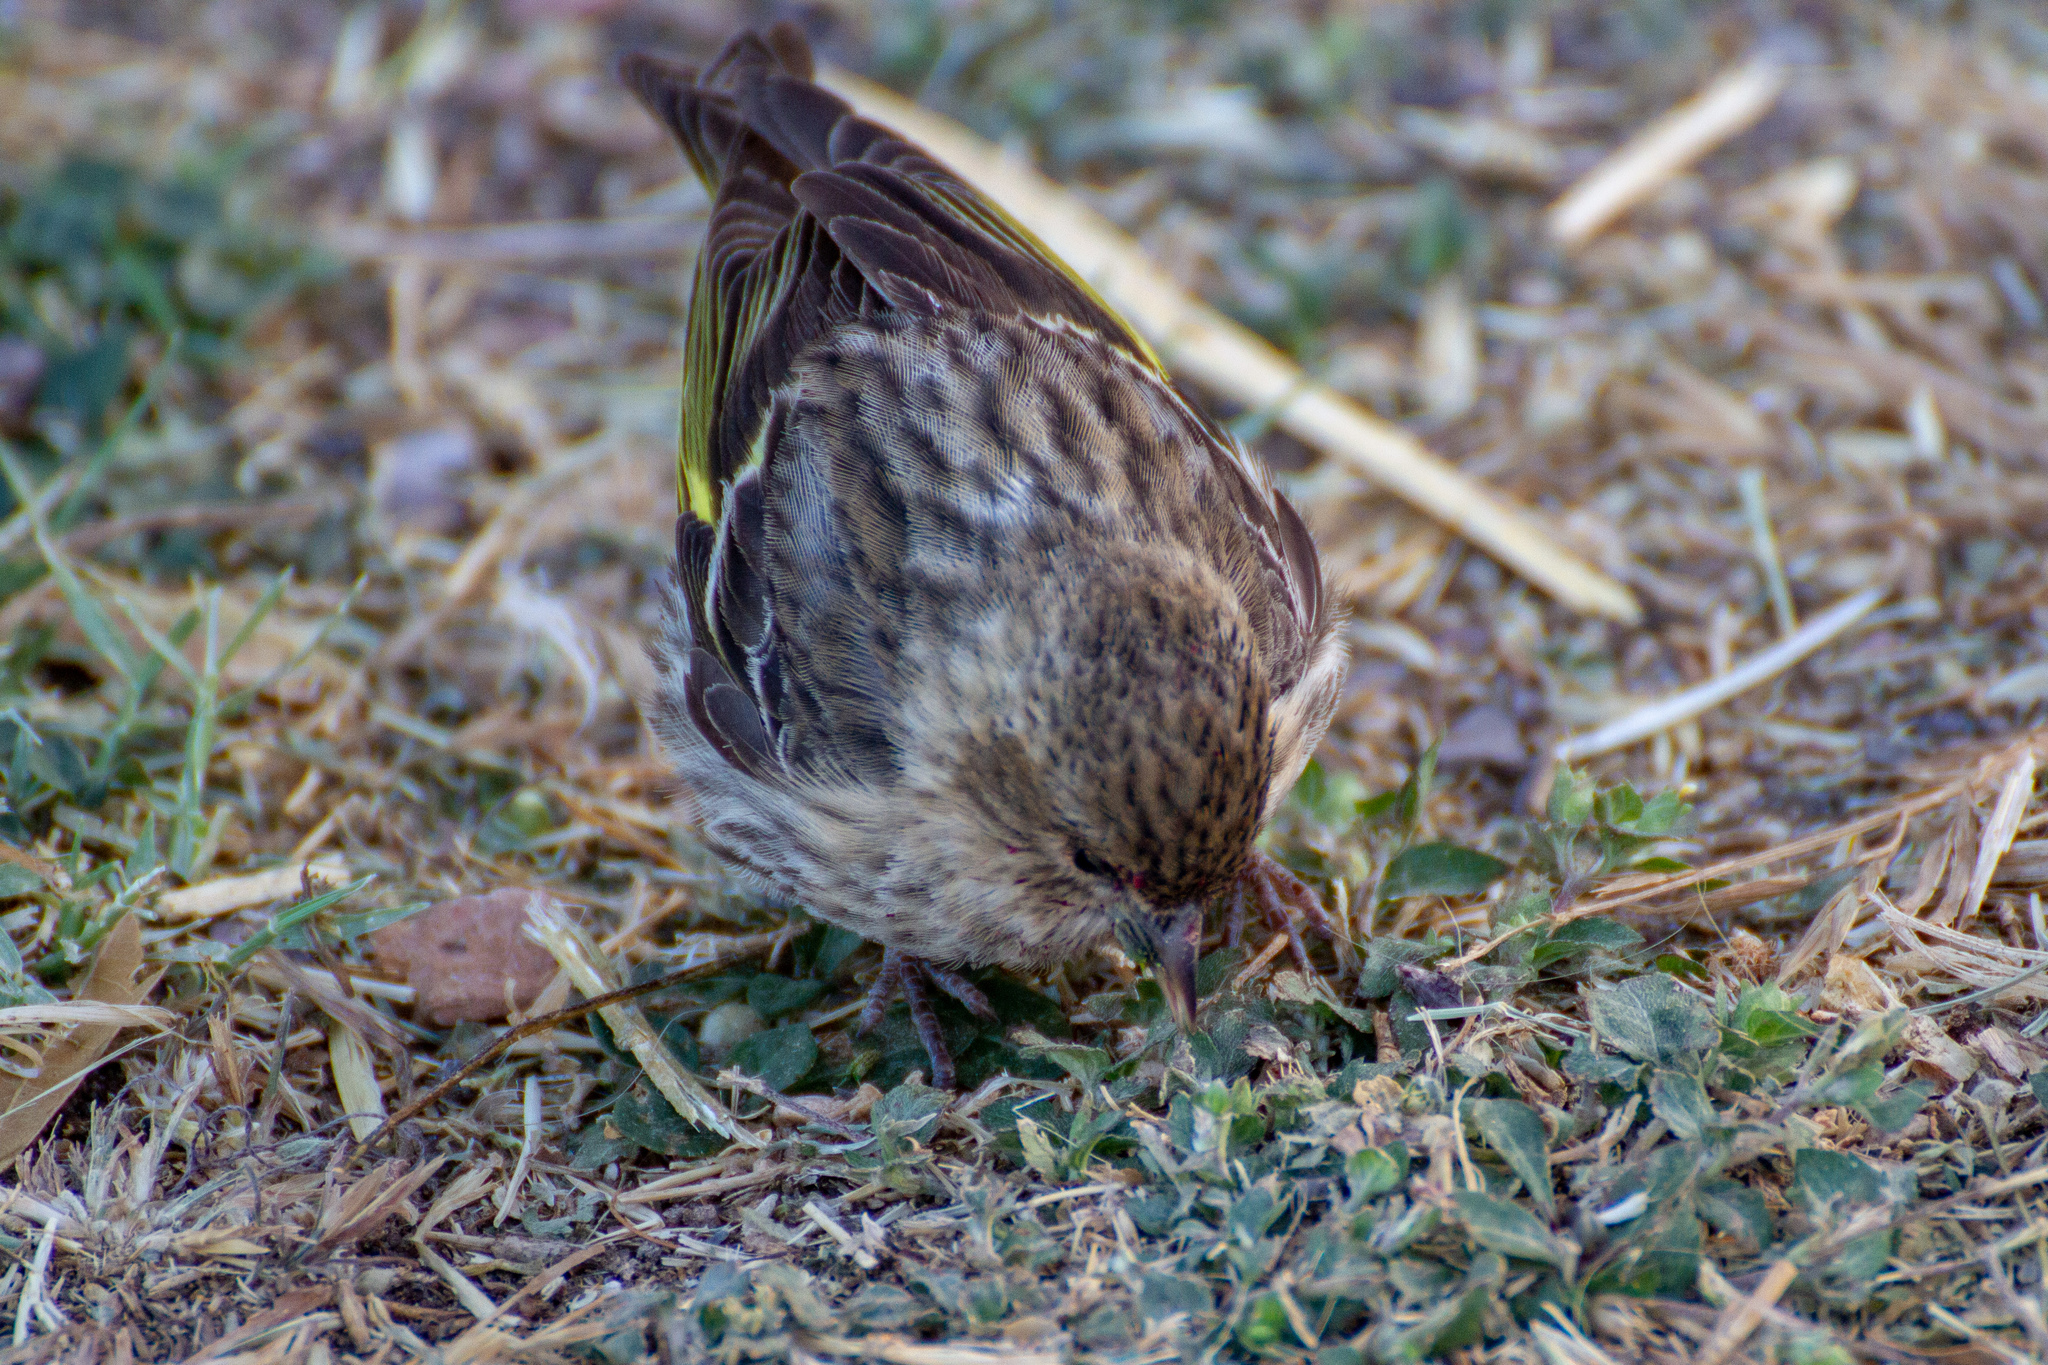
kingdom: Animalia
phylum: Chordata
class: Aves
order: Passeriformes
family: Fringillidae
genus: Spinus
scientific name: Spinus pinus
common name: Pine siskin
